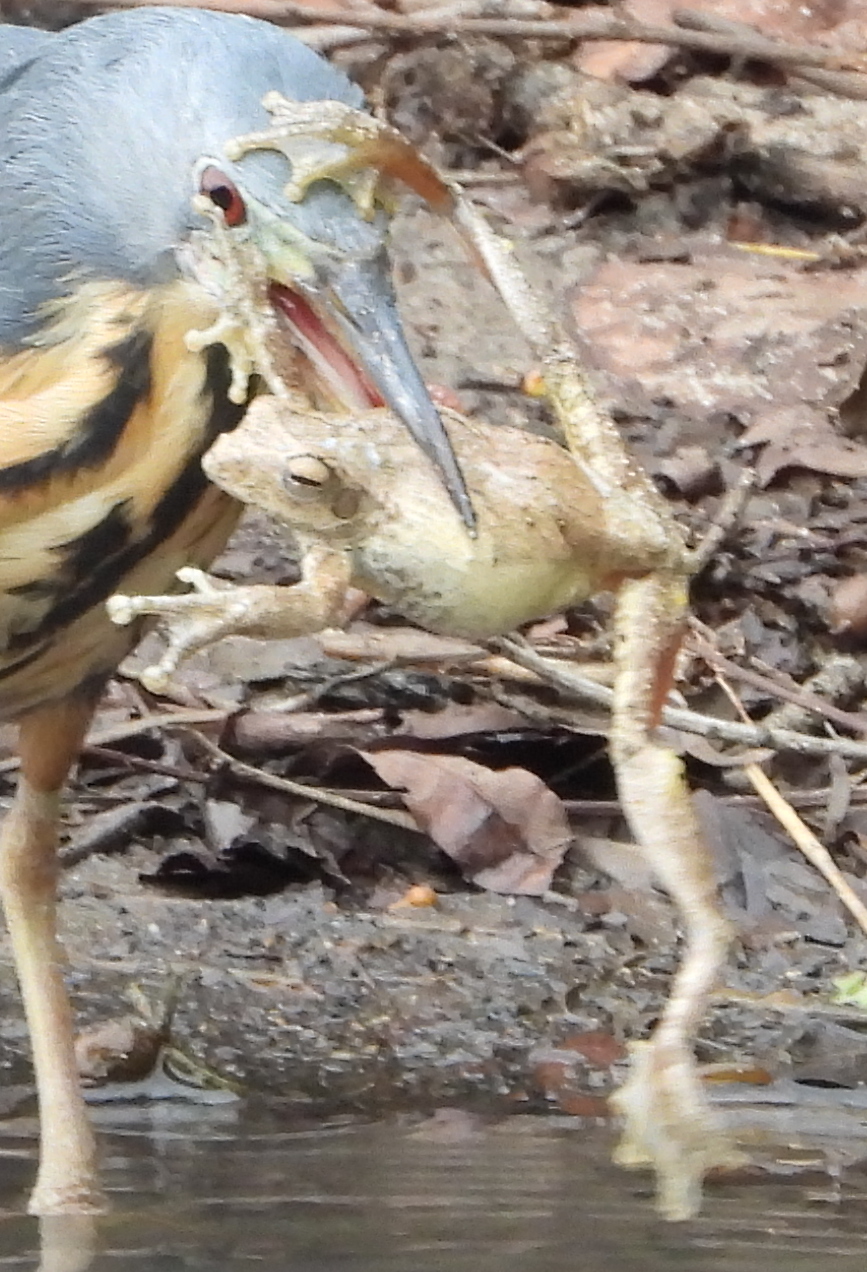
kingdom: Animalia
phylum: Chordata
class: Amphibia
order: Anura
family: Rhacophoridae
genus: Chiromantis
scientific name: Chiromantis xerampelina
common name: African gray treefrog
